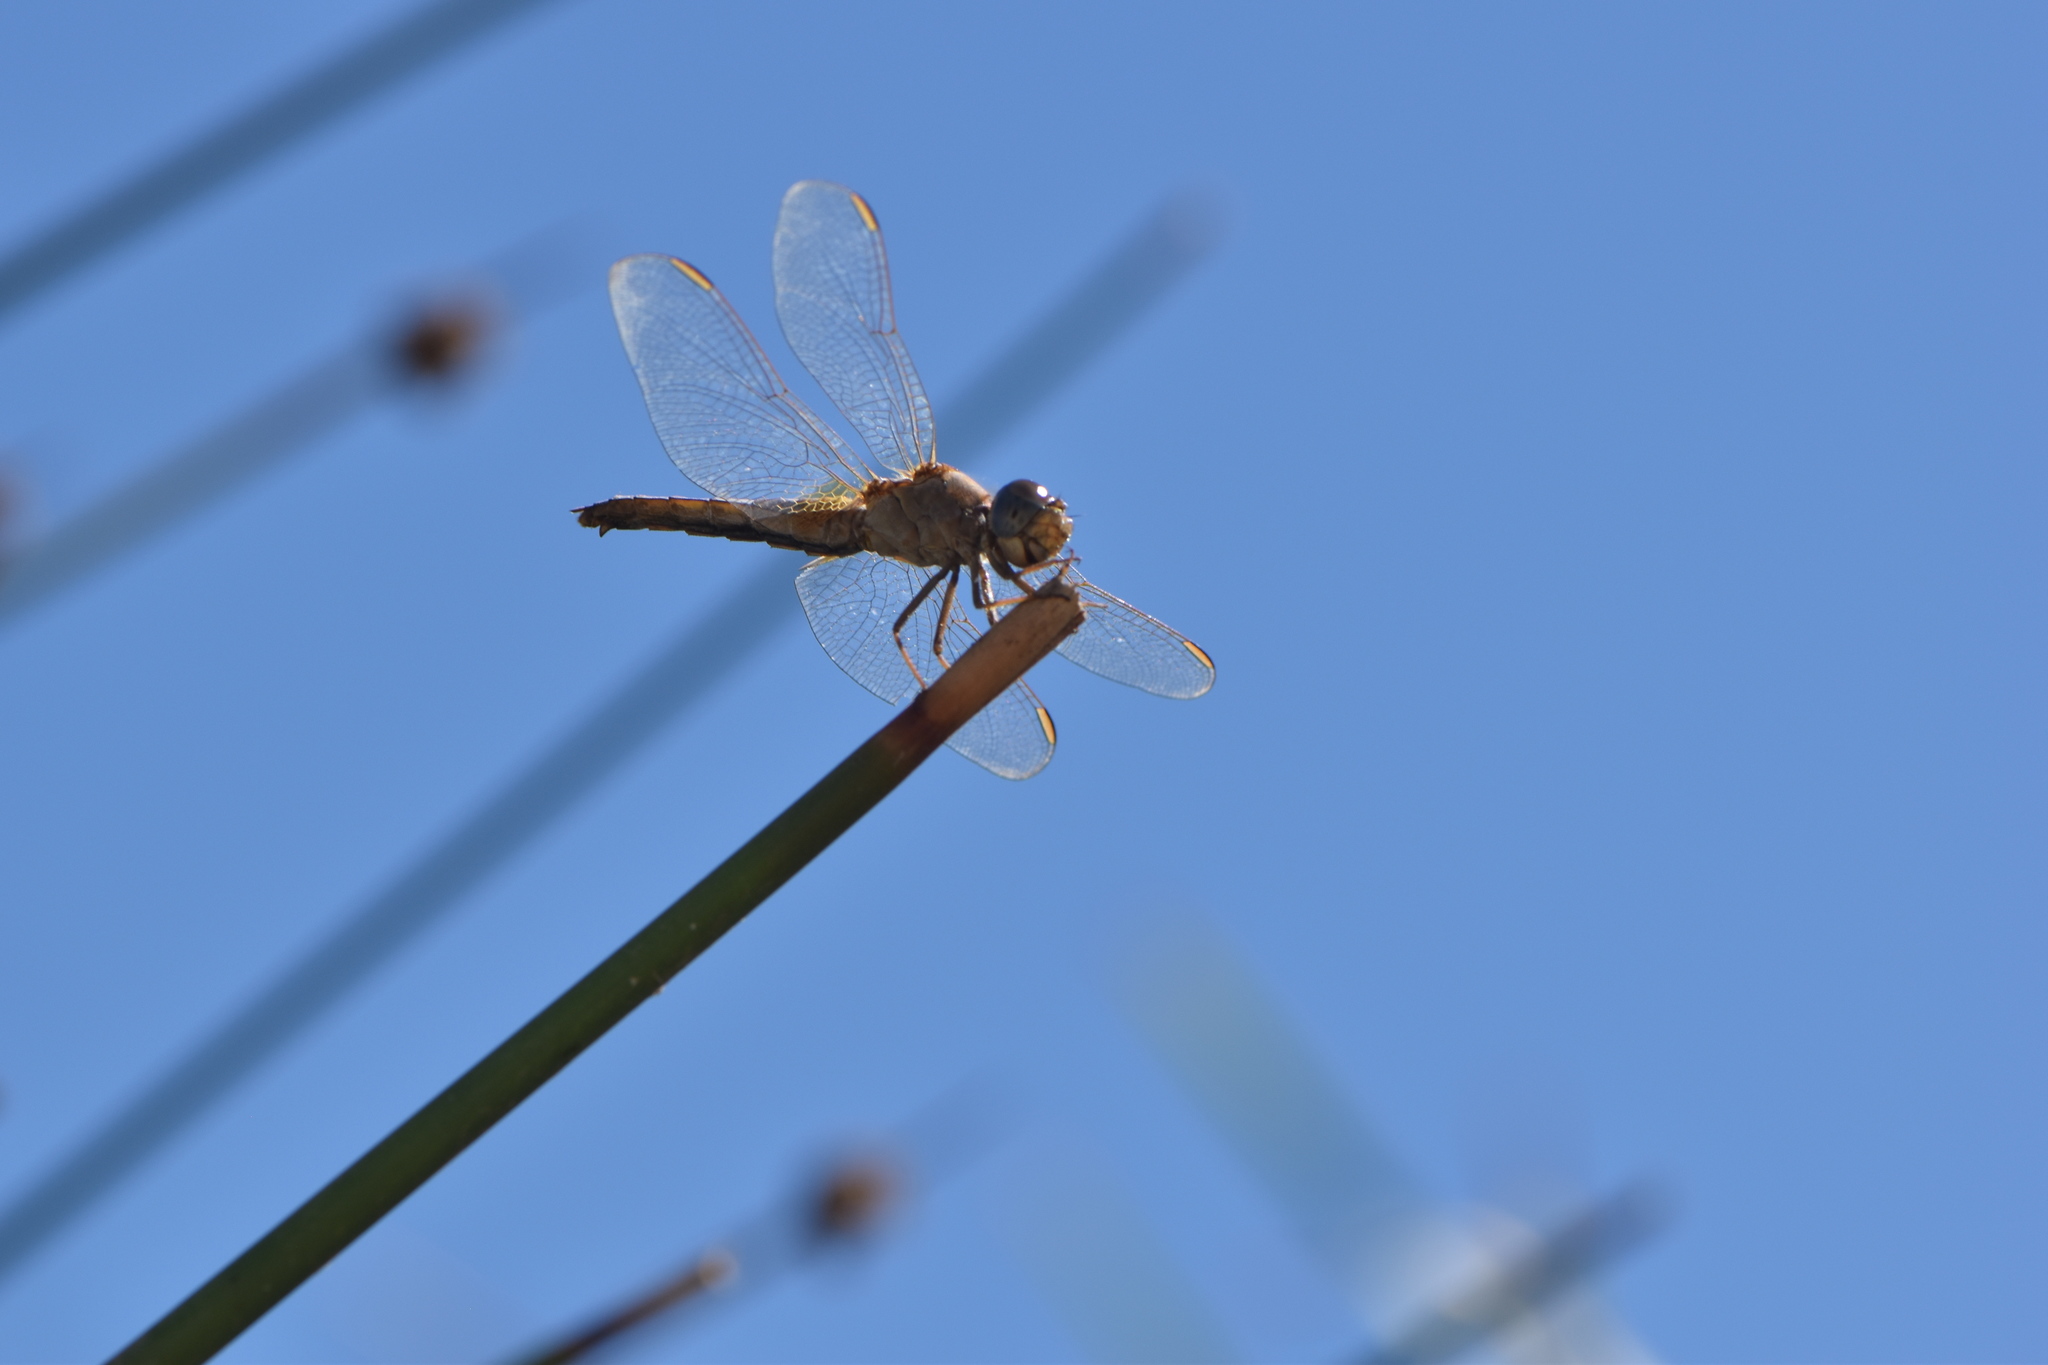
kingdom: Animalia
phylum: Arthropoda
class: Insecta
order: Odonata
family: Libellulidae
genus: Crocothemis
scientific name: Crocothemis erythraea
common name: Scarlet dragonfly
